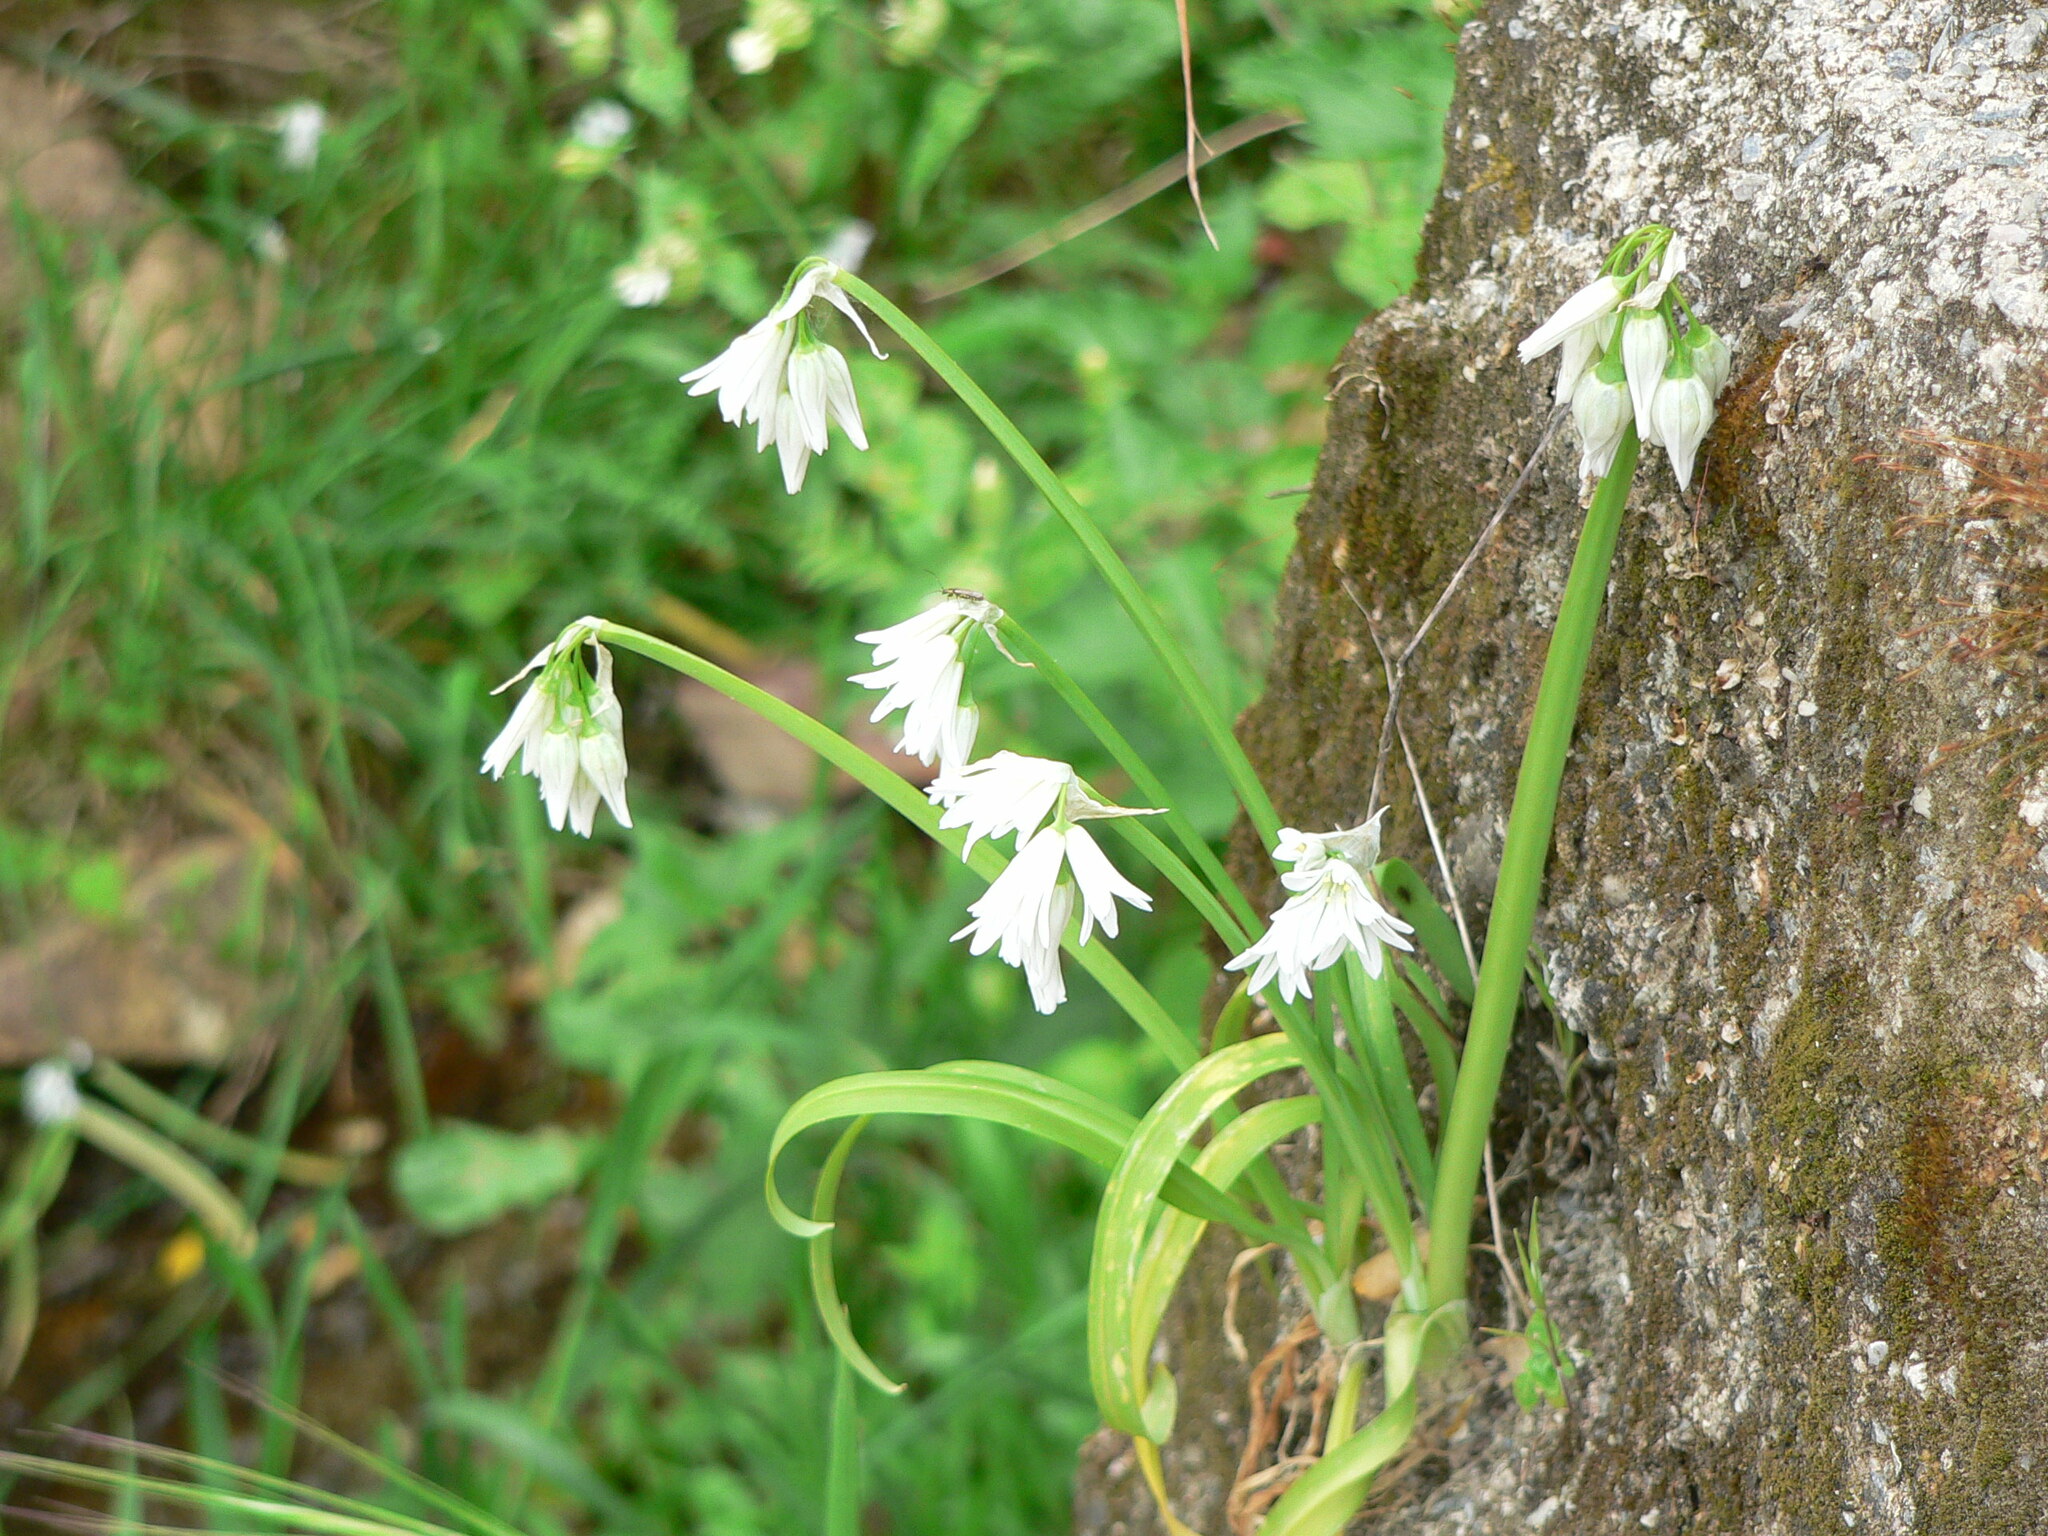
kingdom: Plantae
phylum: Tracheophyta
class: Liliopsida
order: Asparagales
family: Amaryllidaceae
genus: Allium
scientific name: Allium triquetrum
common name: Three-cornered garlic
